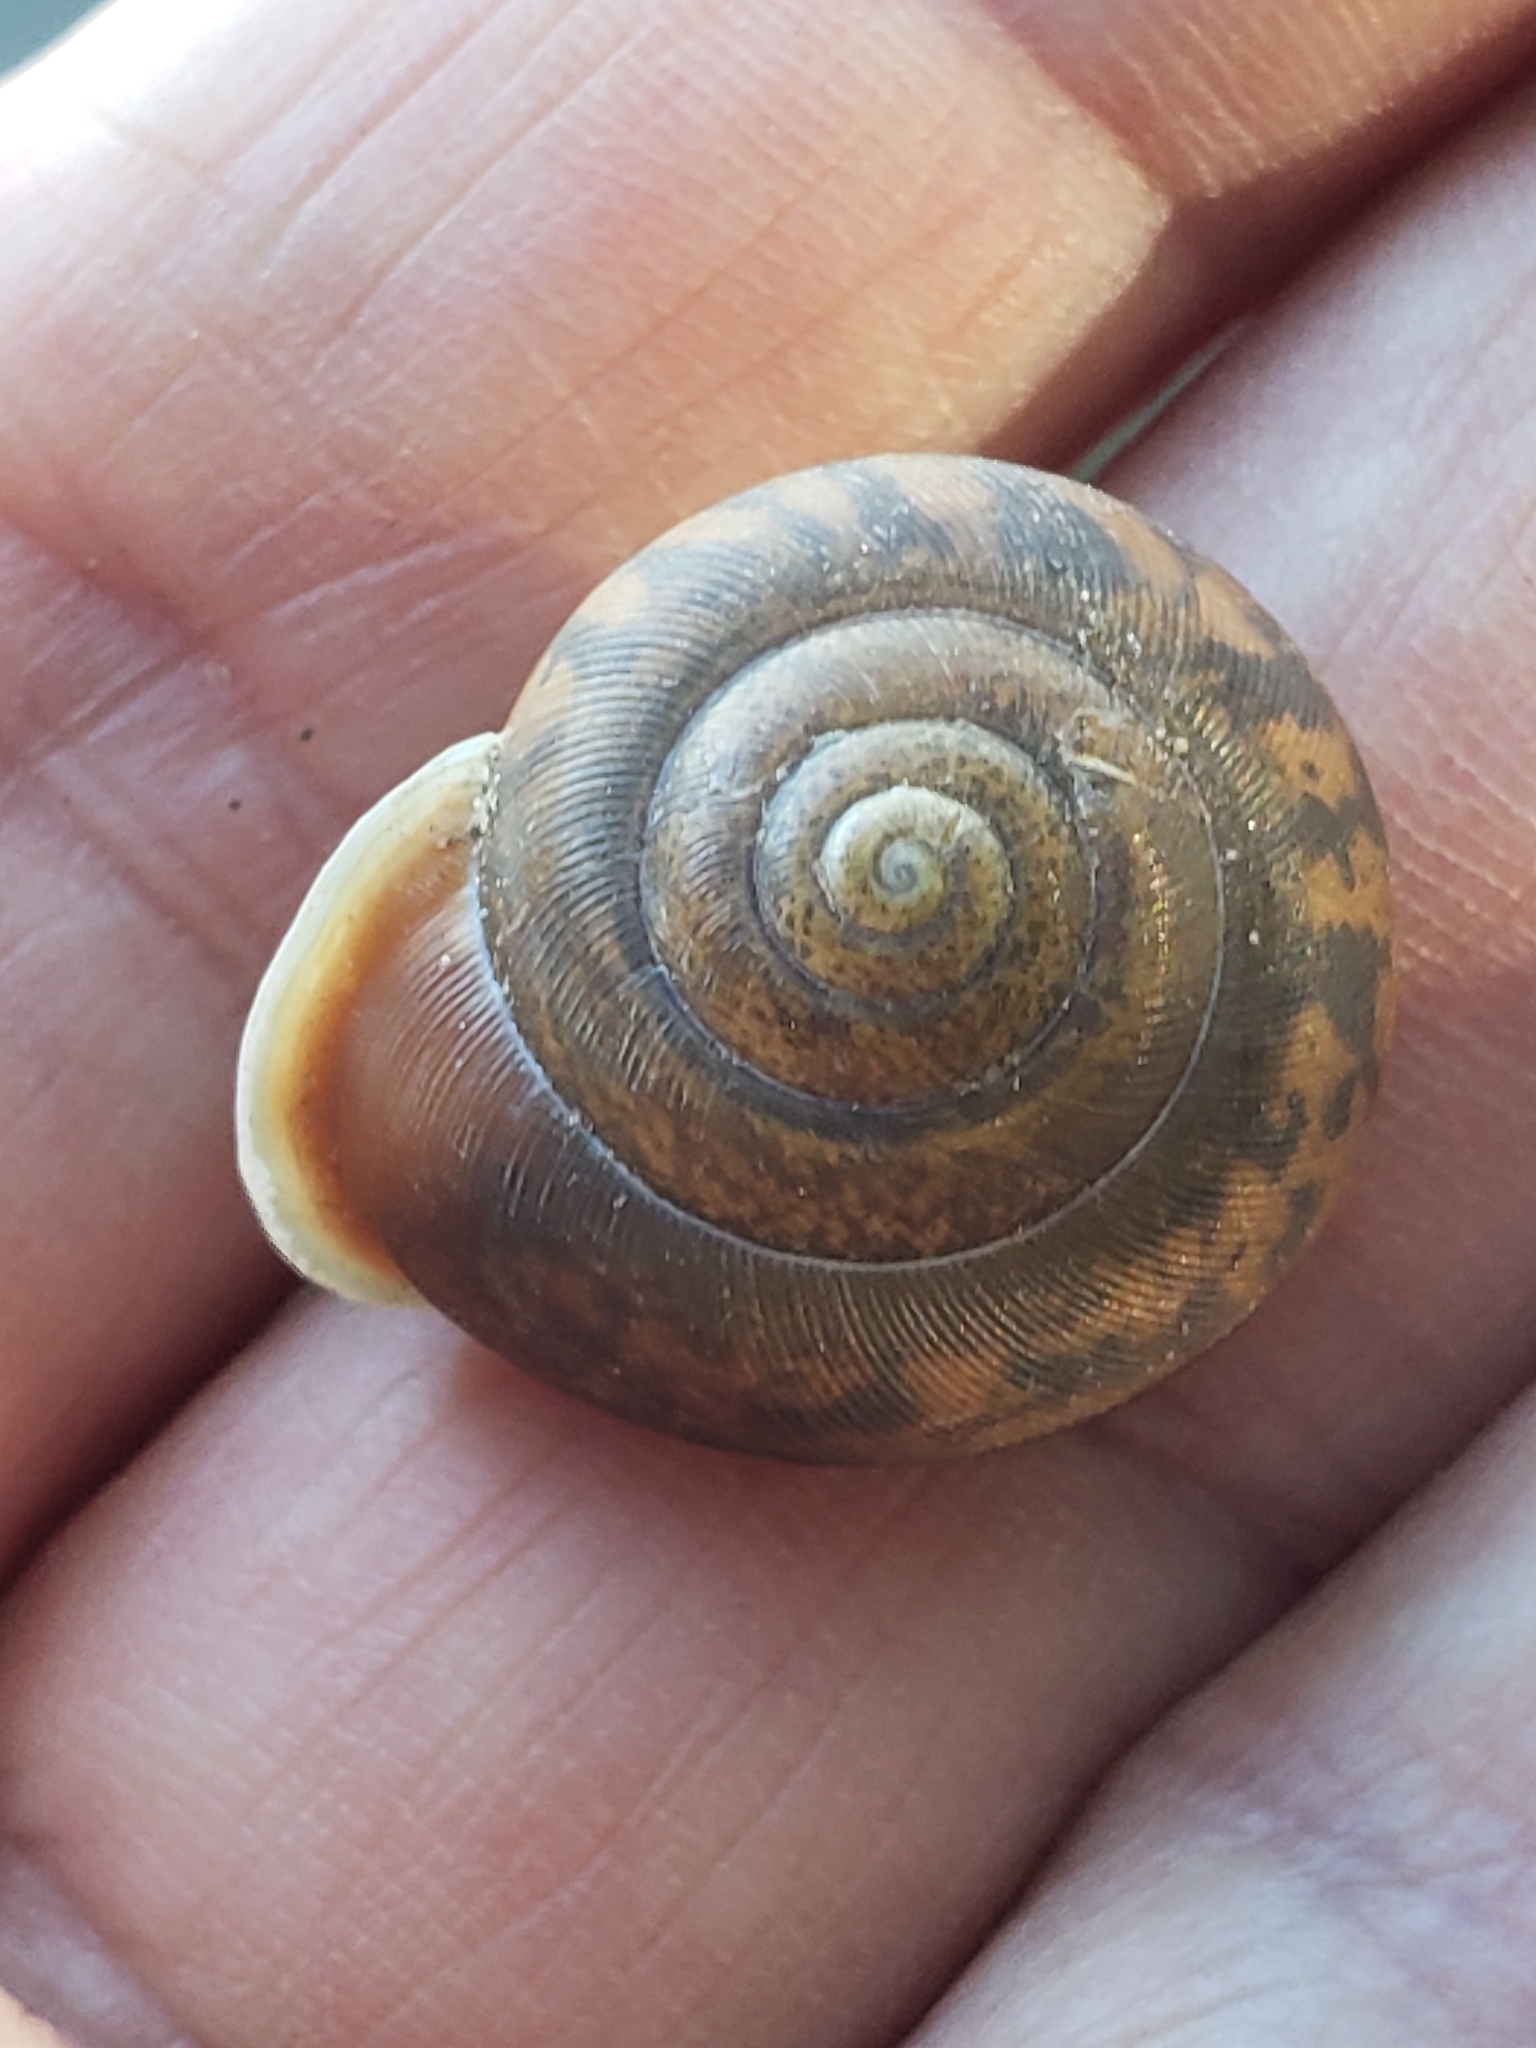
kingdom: Animalia
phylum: Mollusca
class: Gastropoda
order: Stylommatophora
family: Polygyridae
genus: Mesodon
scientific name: Mesodon thyroidus
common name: White-lip globe
